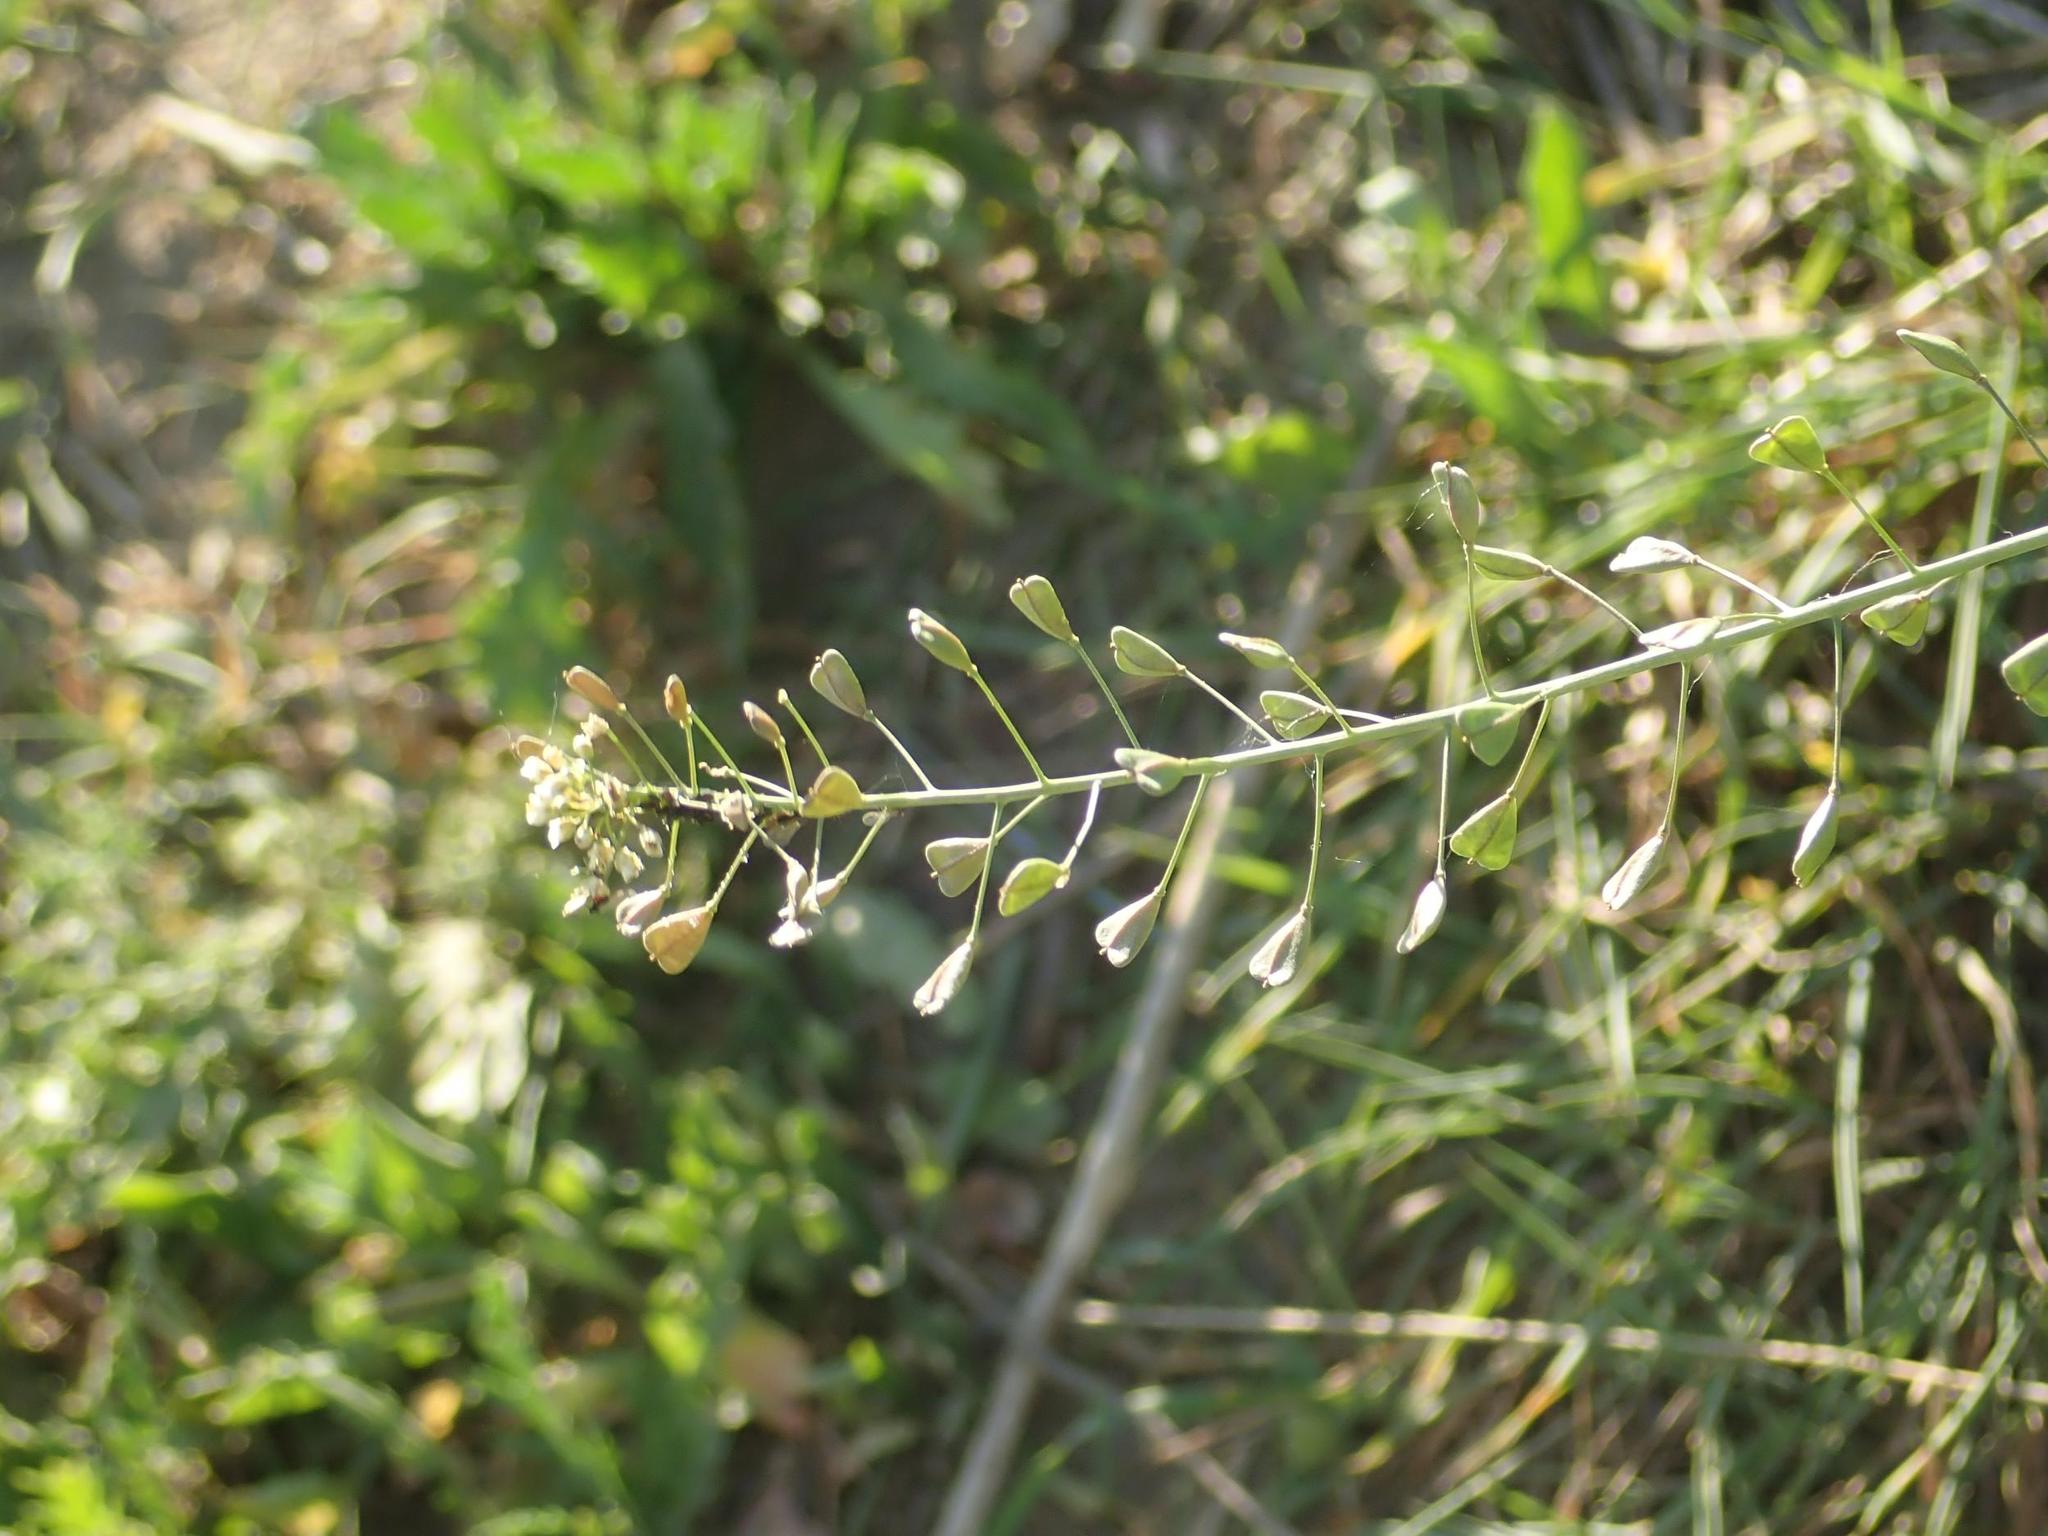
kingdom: Plantae
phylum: Tracheophyta
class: Magnoliopsida
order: Brassicales
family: Brassicaceae
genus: Capsella
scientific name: Capsella bursa-pastoris
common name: Shepherd's purse
